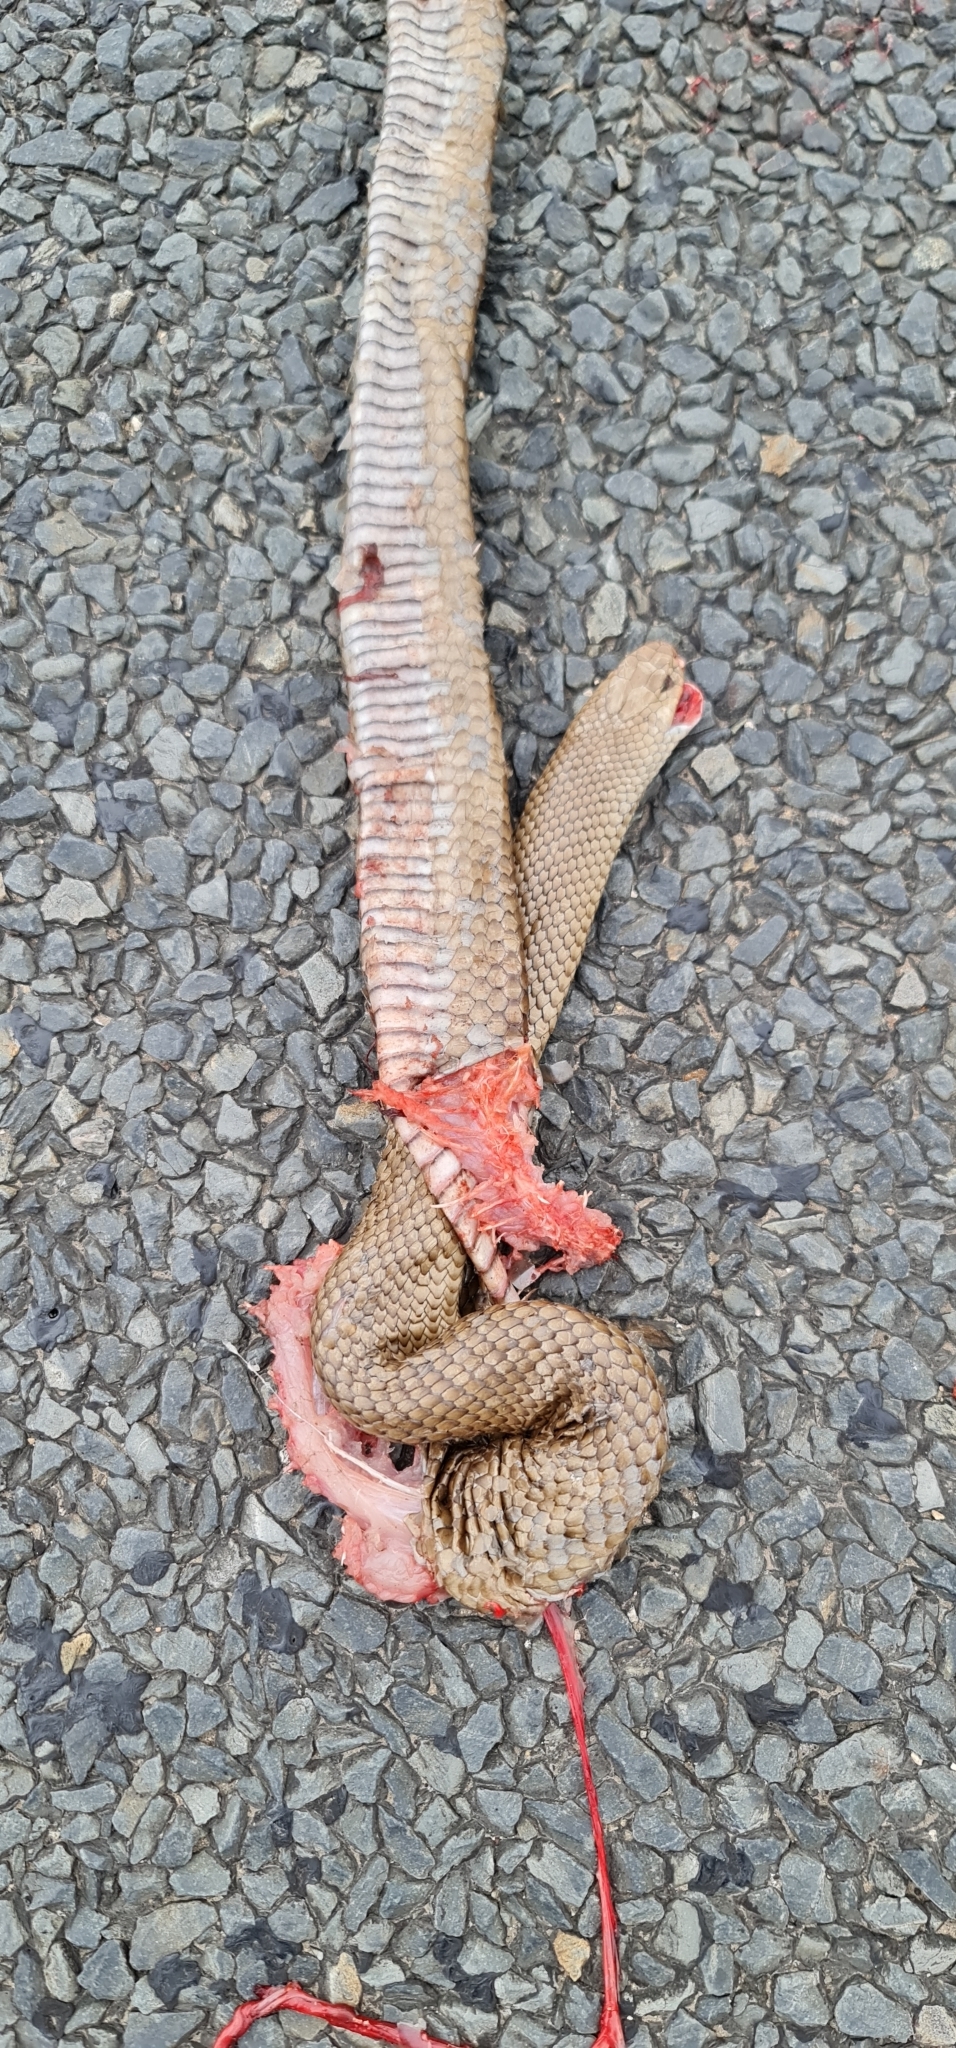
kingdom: Animalia
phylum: Chordata
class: Squamata
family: Elapidae
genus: Pseudonaja
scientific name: Pseudonaja textilis
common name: Eastern brown snake
